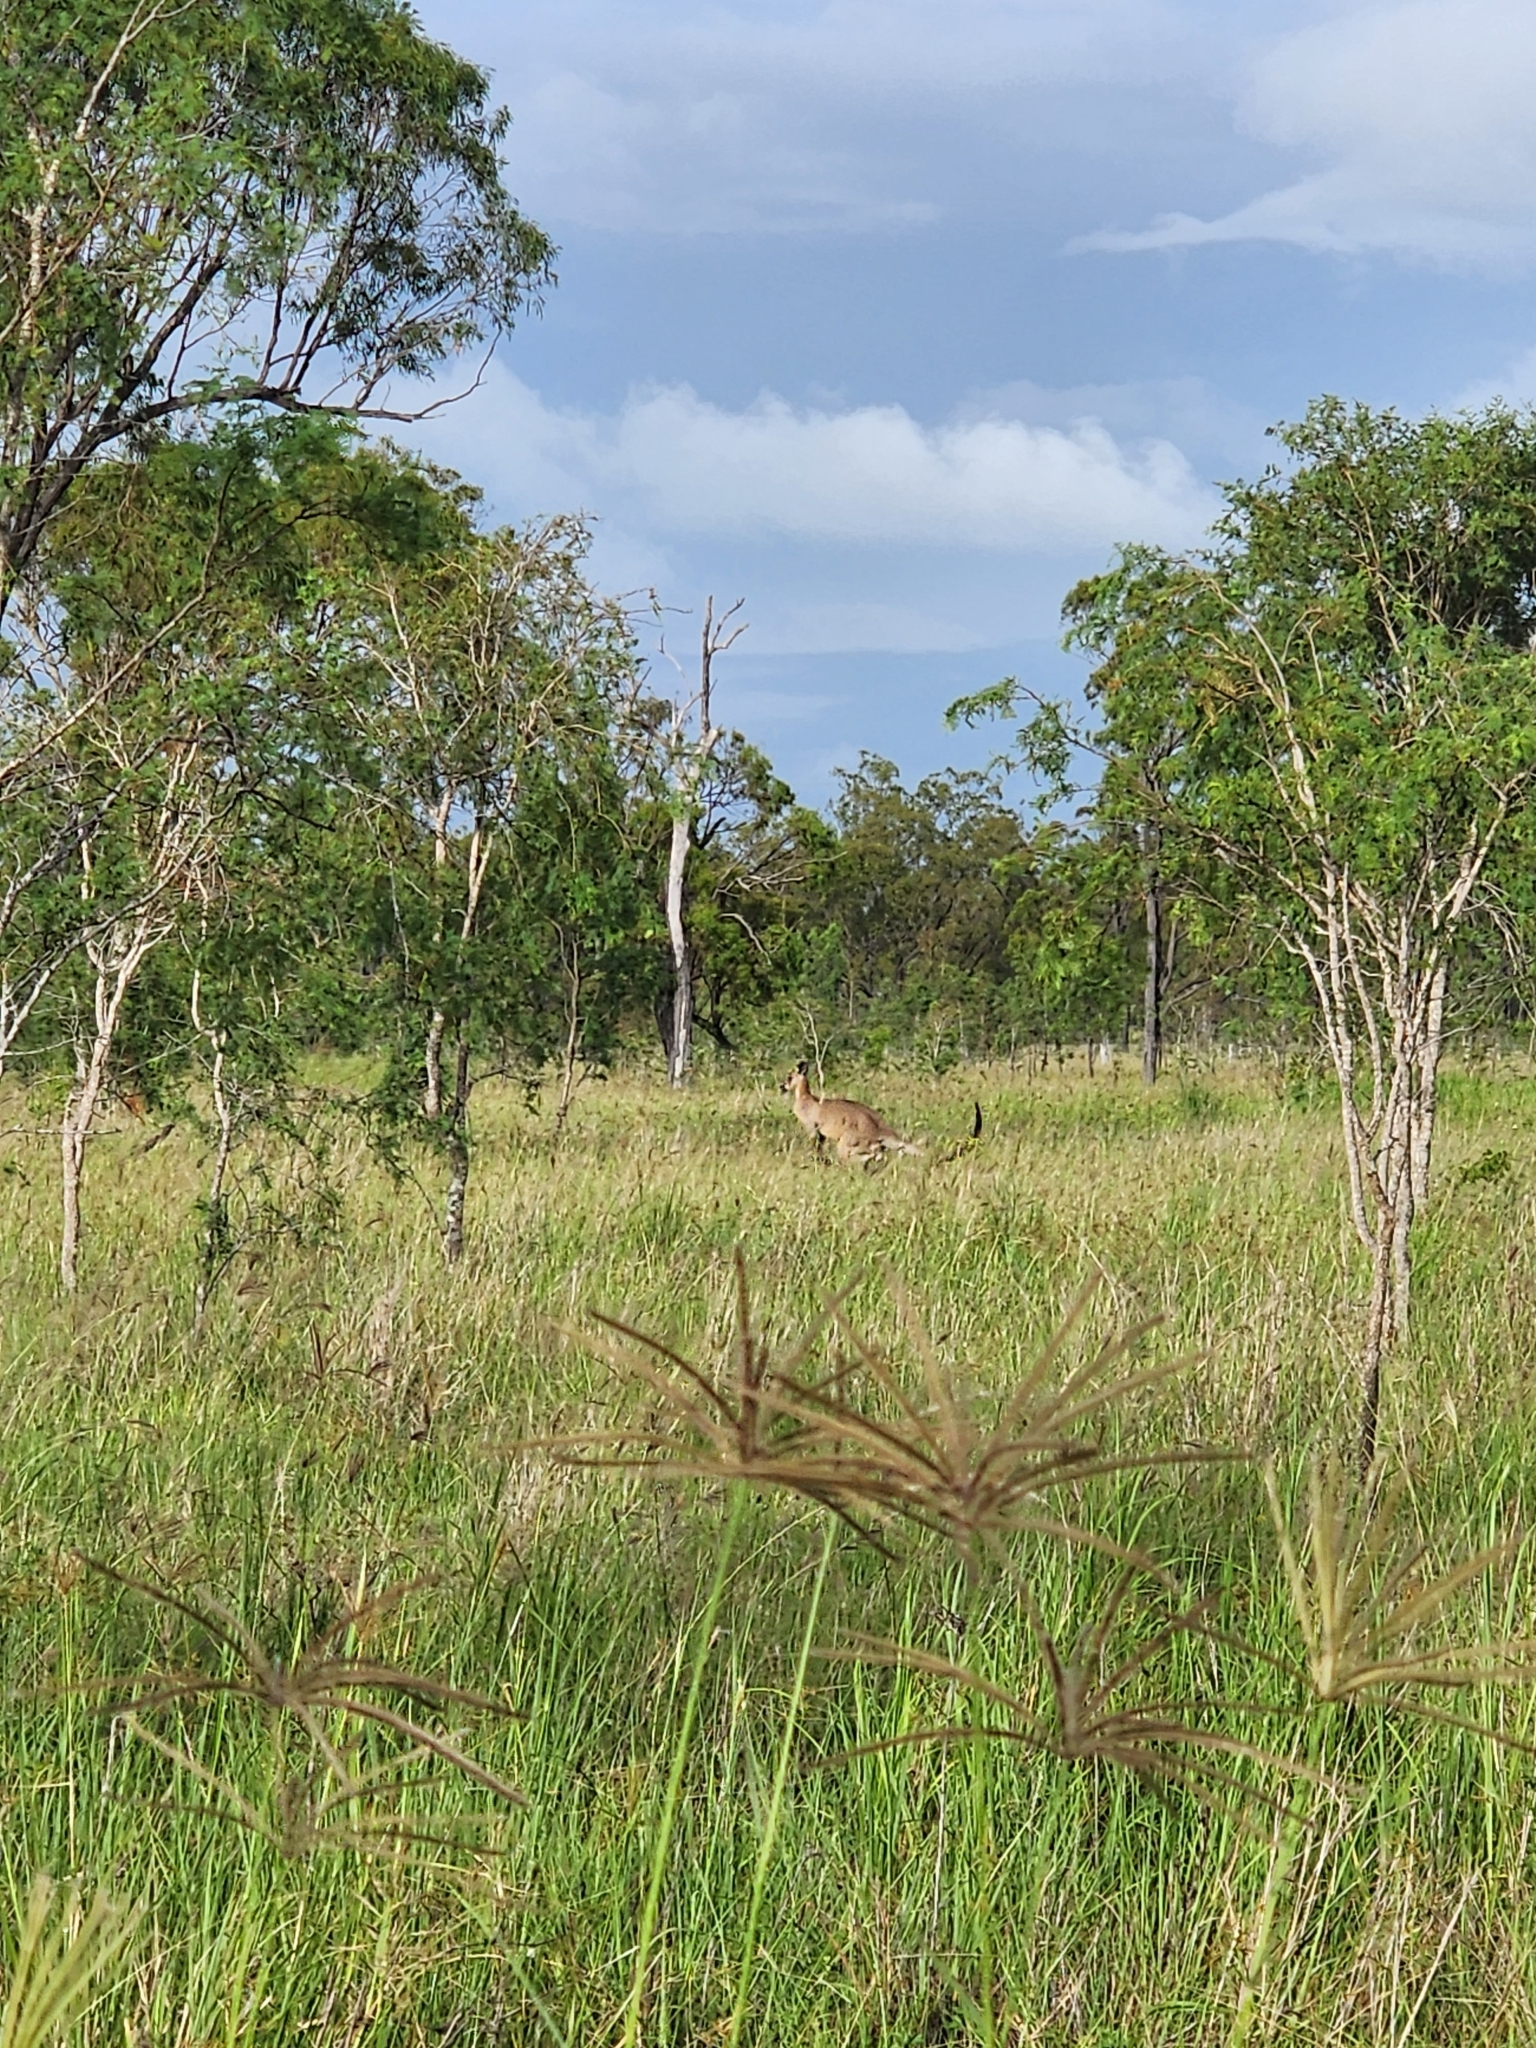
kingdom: Animalia
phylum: Chordata
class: Mammalia
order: Diprotodontia
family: Macropodidae
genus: Macropus
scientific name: Macropus giganteus
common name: Eastern grey kangaroo
